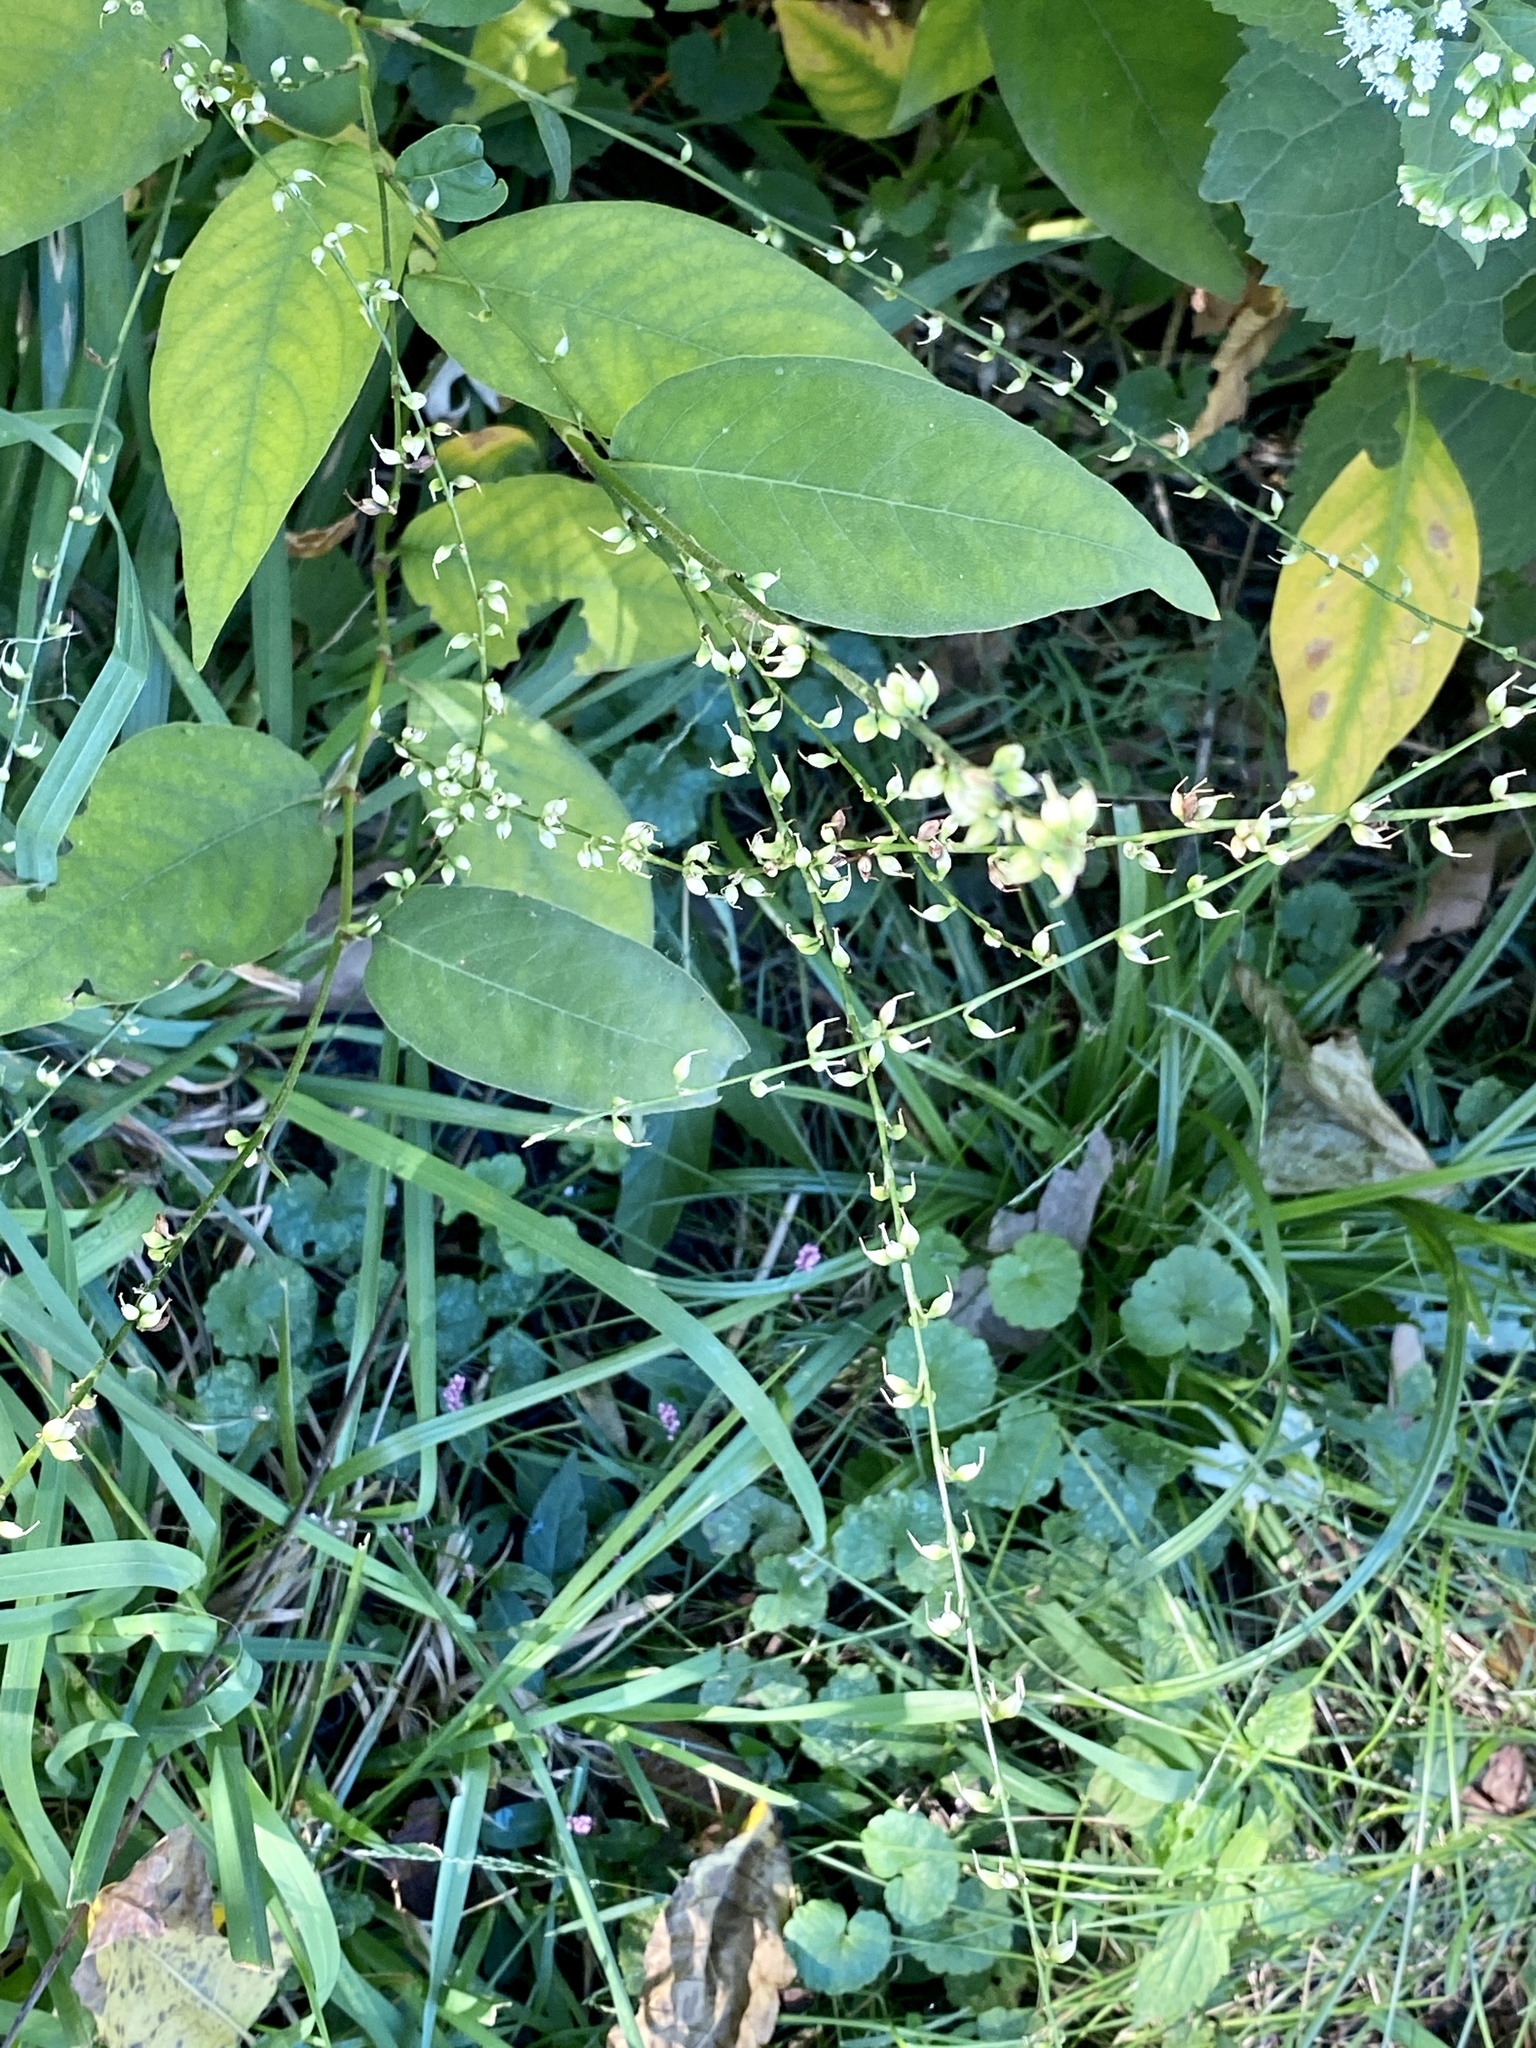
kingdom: Plantae
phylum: Tracheophyta
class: Magnoliopsida
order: Caryophyllales
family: Polygonaceae
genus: Persicaria
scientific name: Persicaria virginiana
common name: Jumpseed
